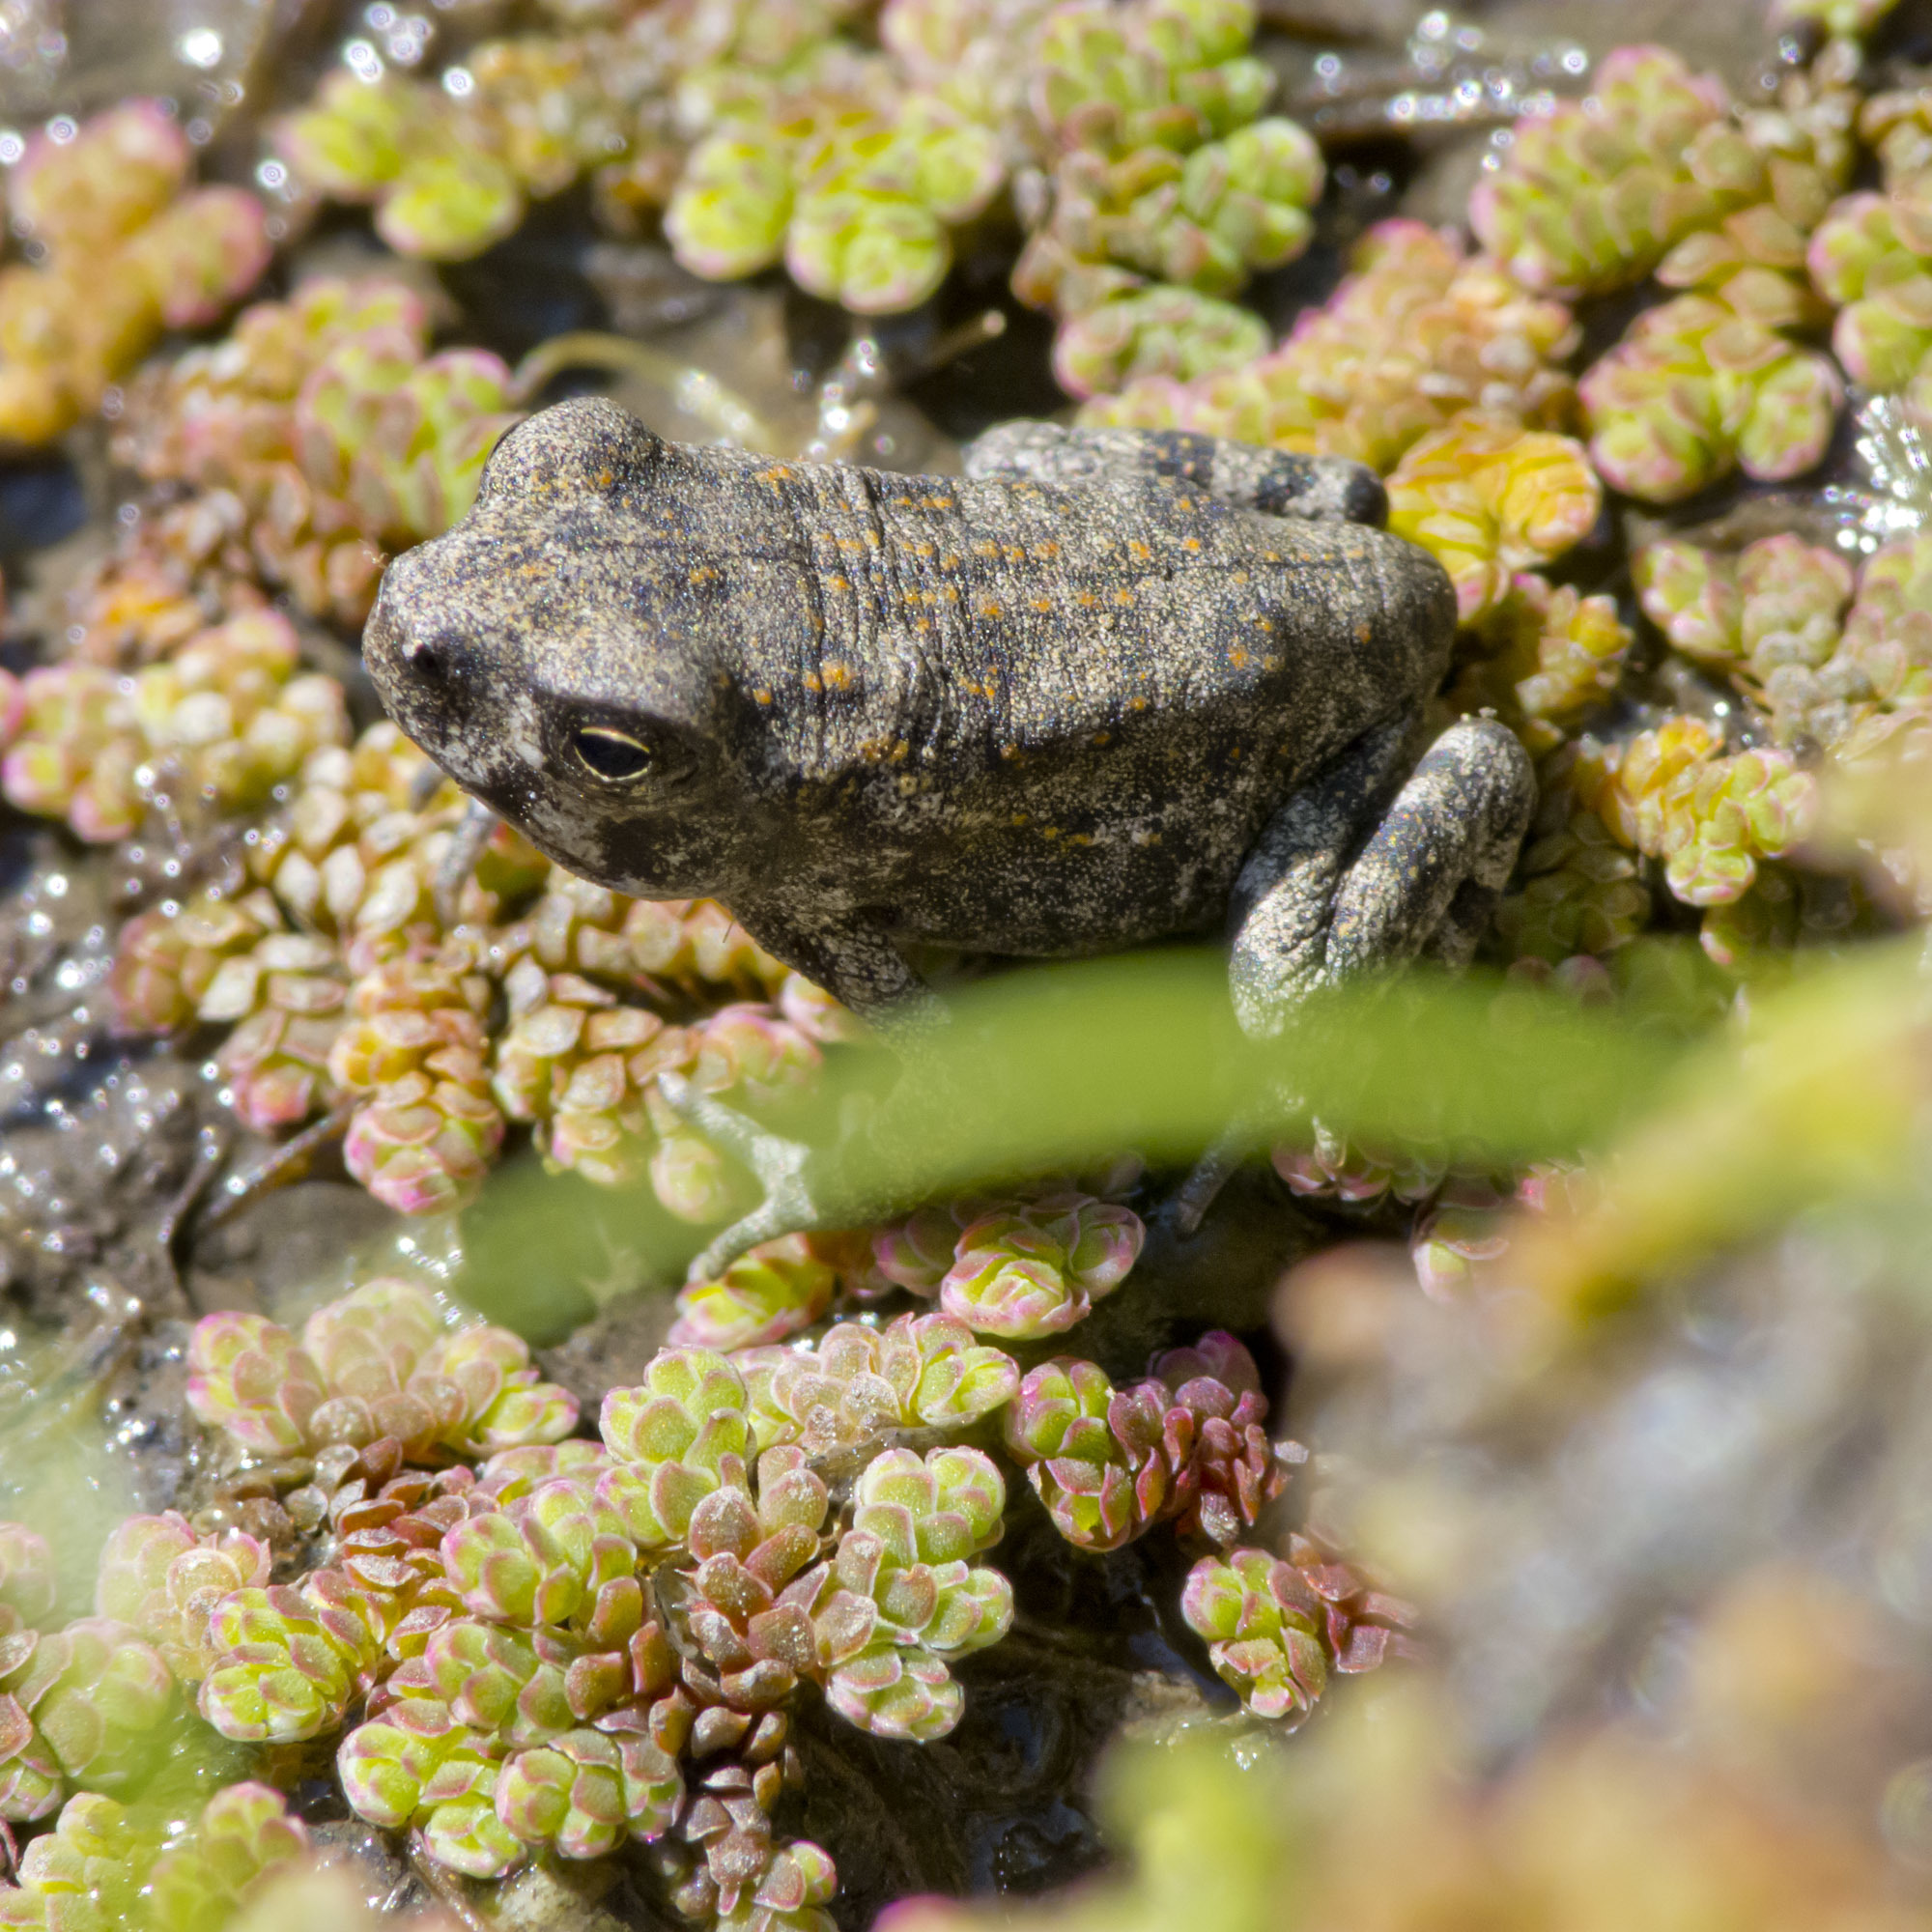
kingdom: Animalia
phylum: Chordata
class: Amphibia
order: Anura
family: Bufonidae
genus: Rhinella
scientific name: Rhinella horribilis
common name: Mesoamerican cane toad
